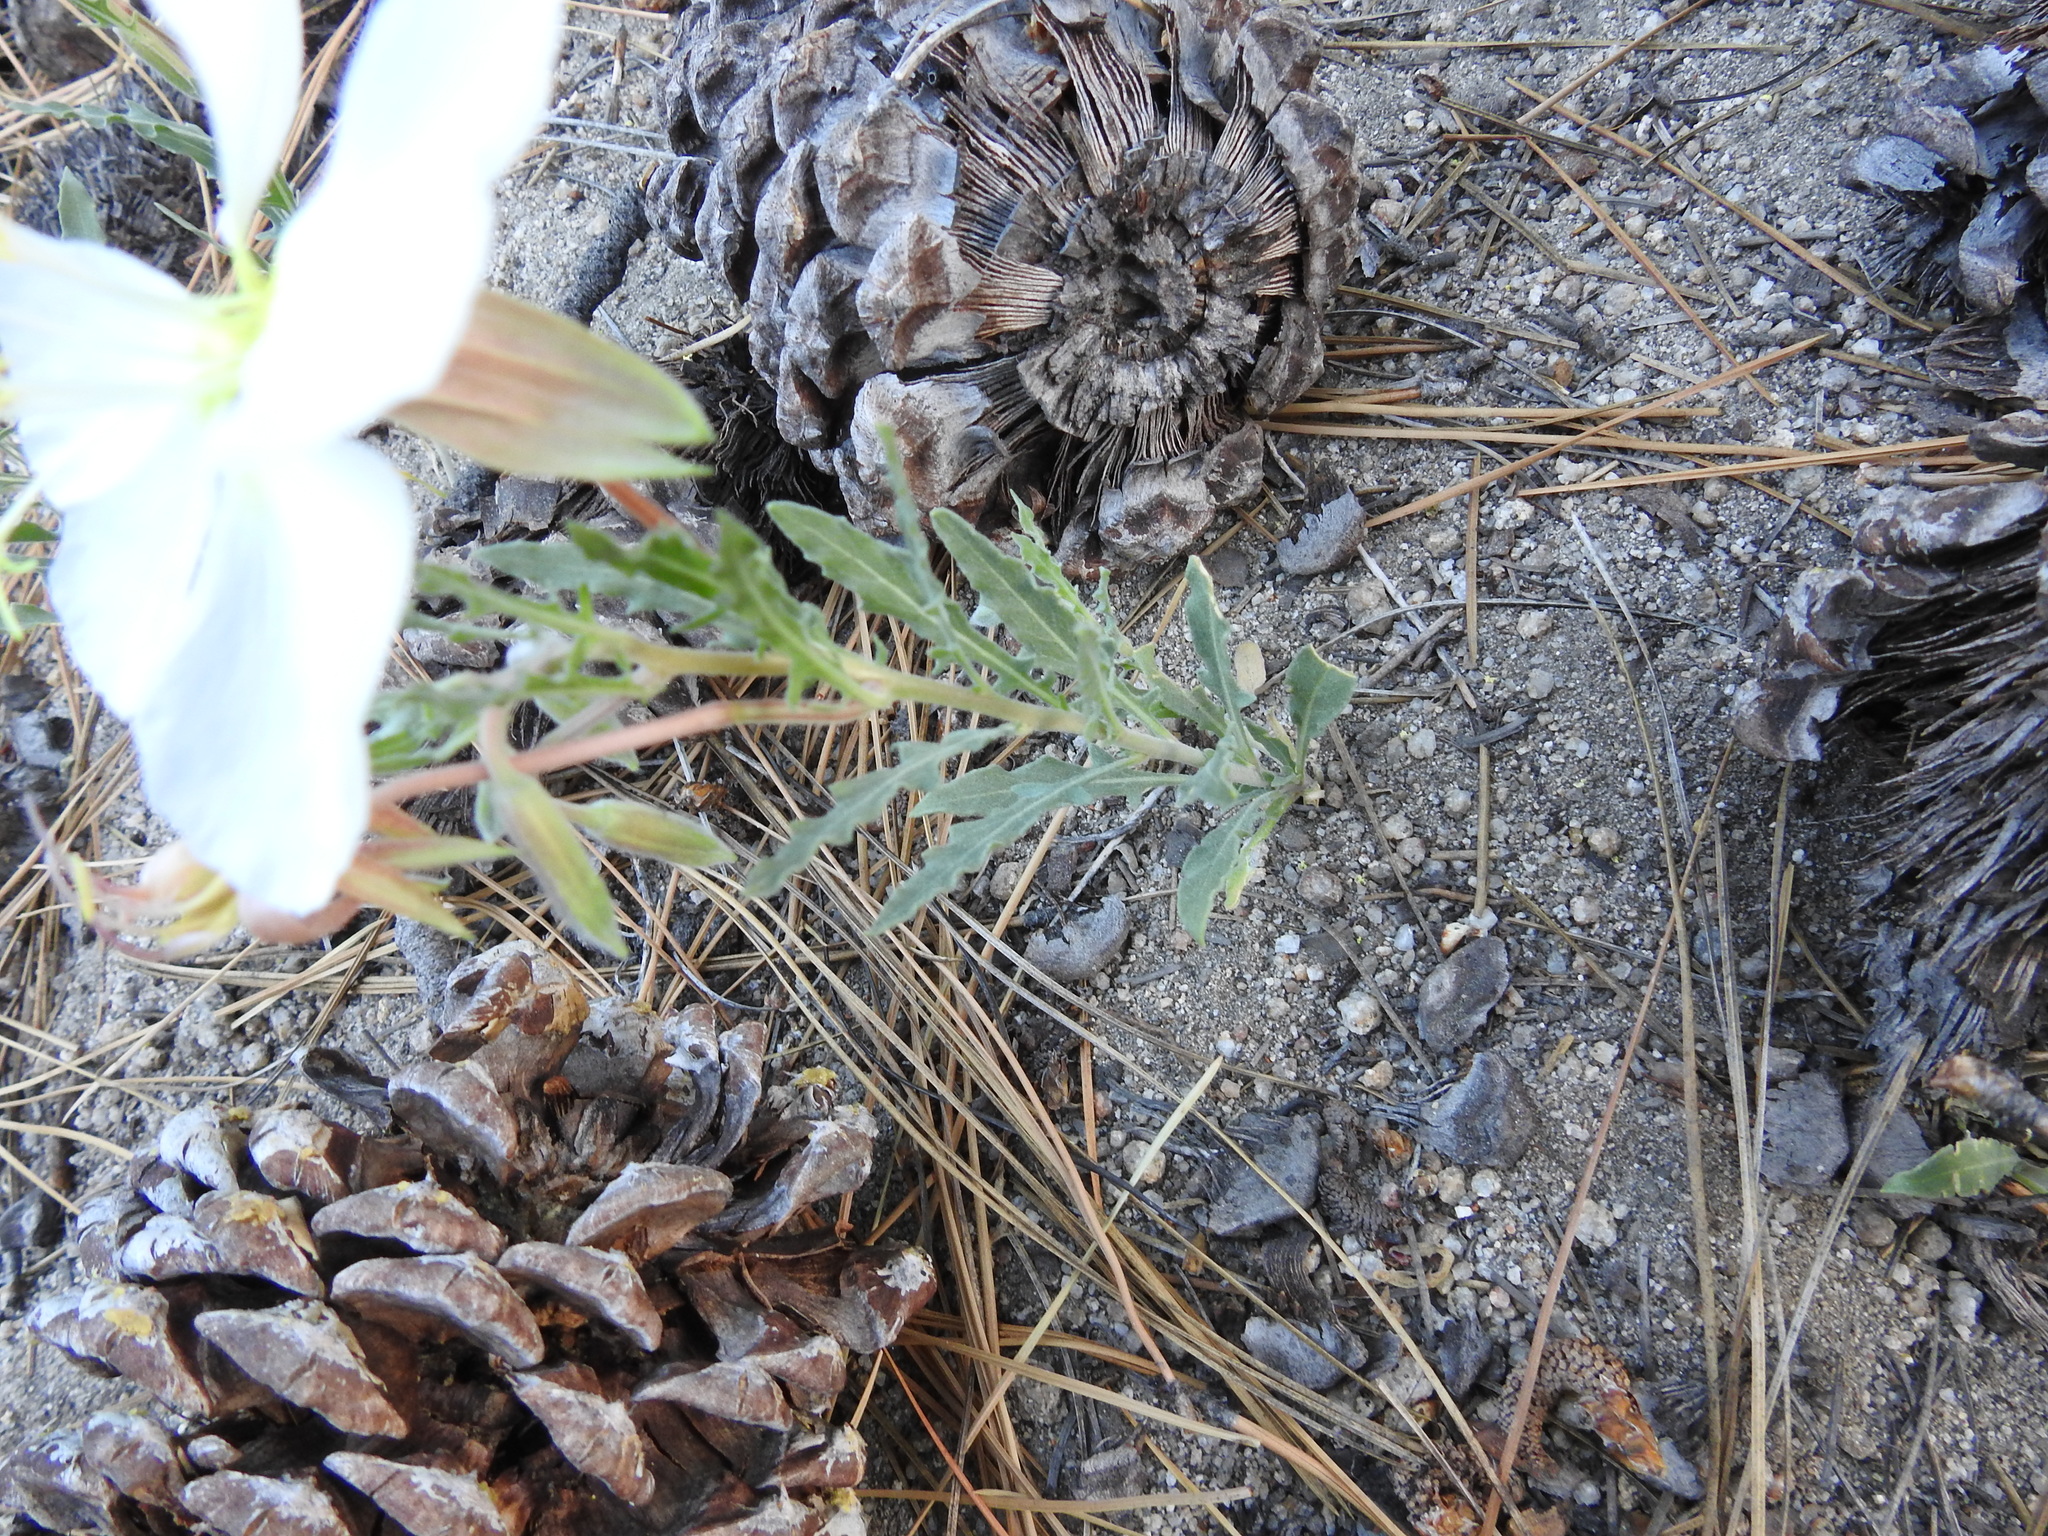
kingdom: Plantae
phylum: Tracheophyta
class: Magnoliopsida
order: Myrtales
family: Onagraceae
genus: Oenothera
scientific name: Oenothera californica
